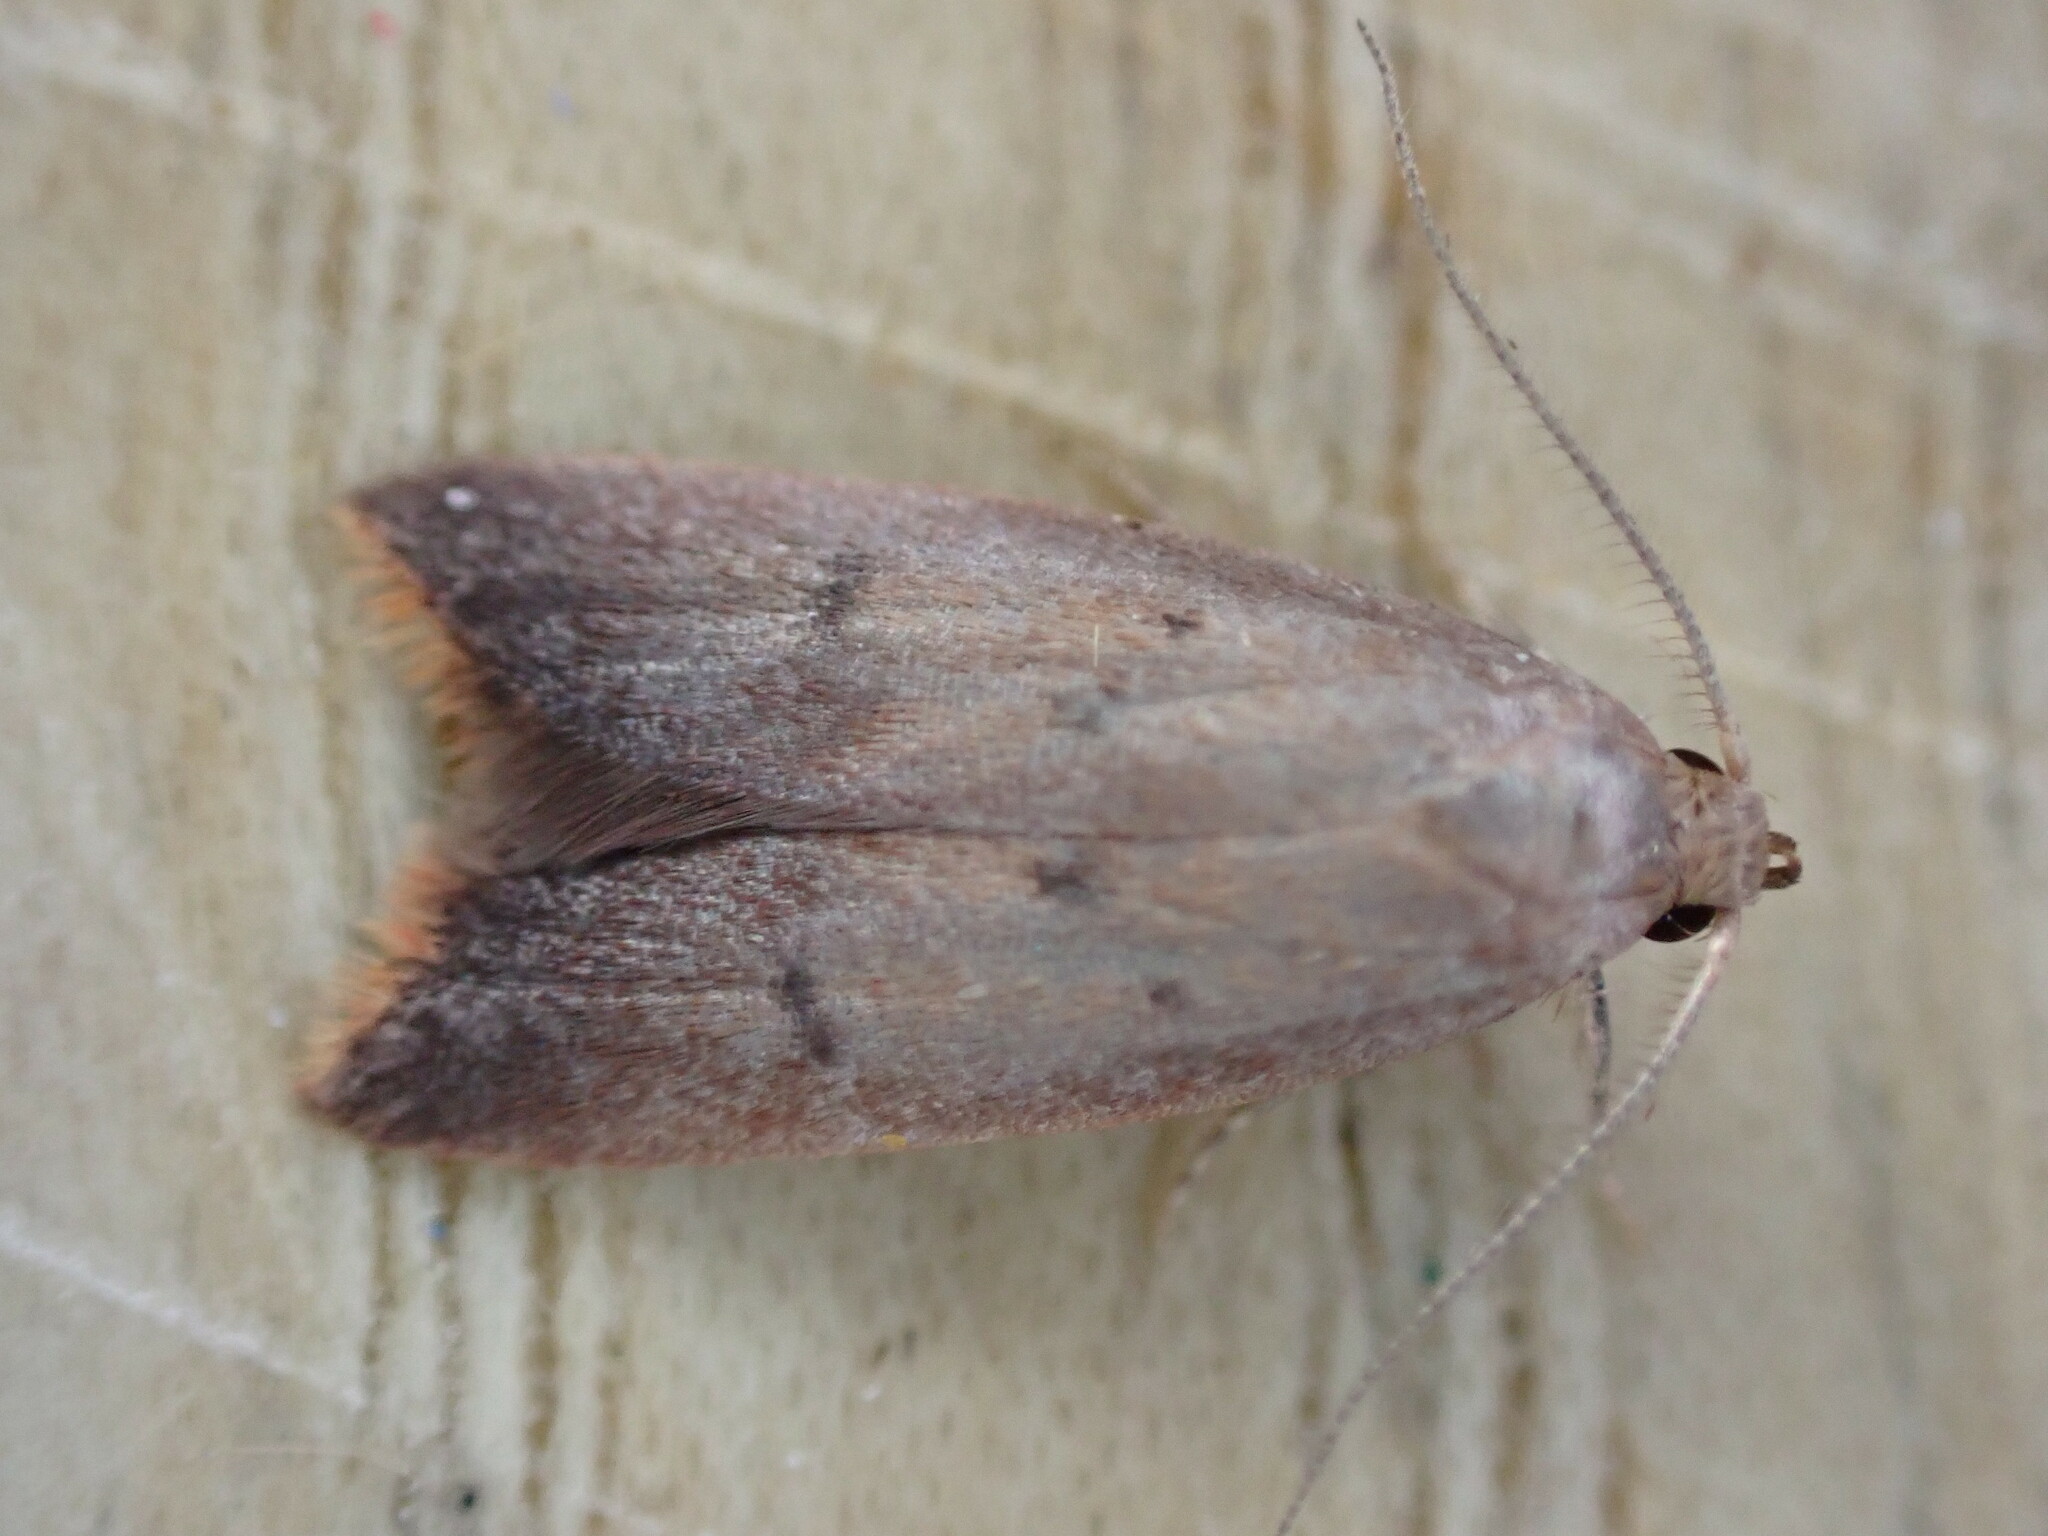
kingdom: Animalia
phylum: Arthropoda
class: Insecta
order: Lepidoptera
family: Oecophoridae
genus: Tachystola
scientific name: Tachystola acroxantha
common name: Ruddy streak
